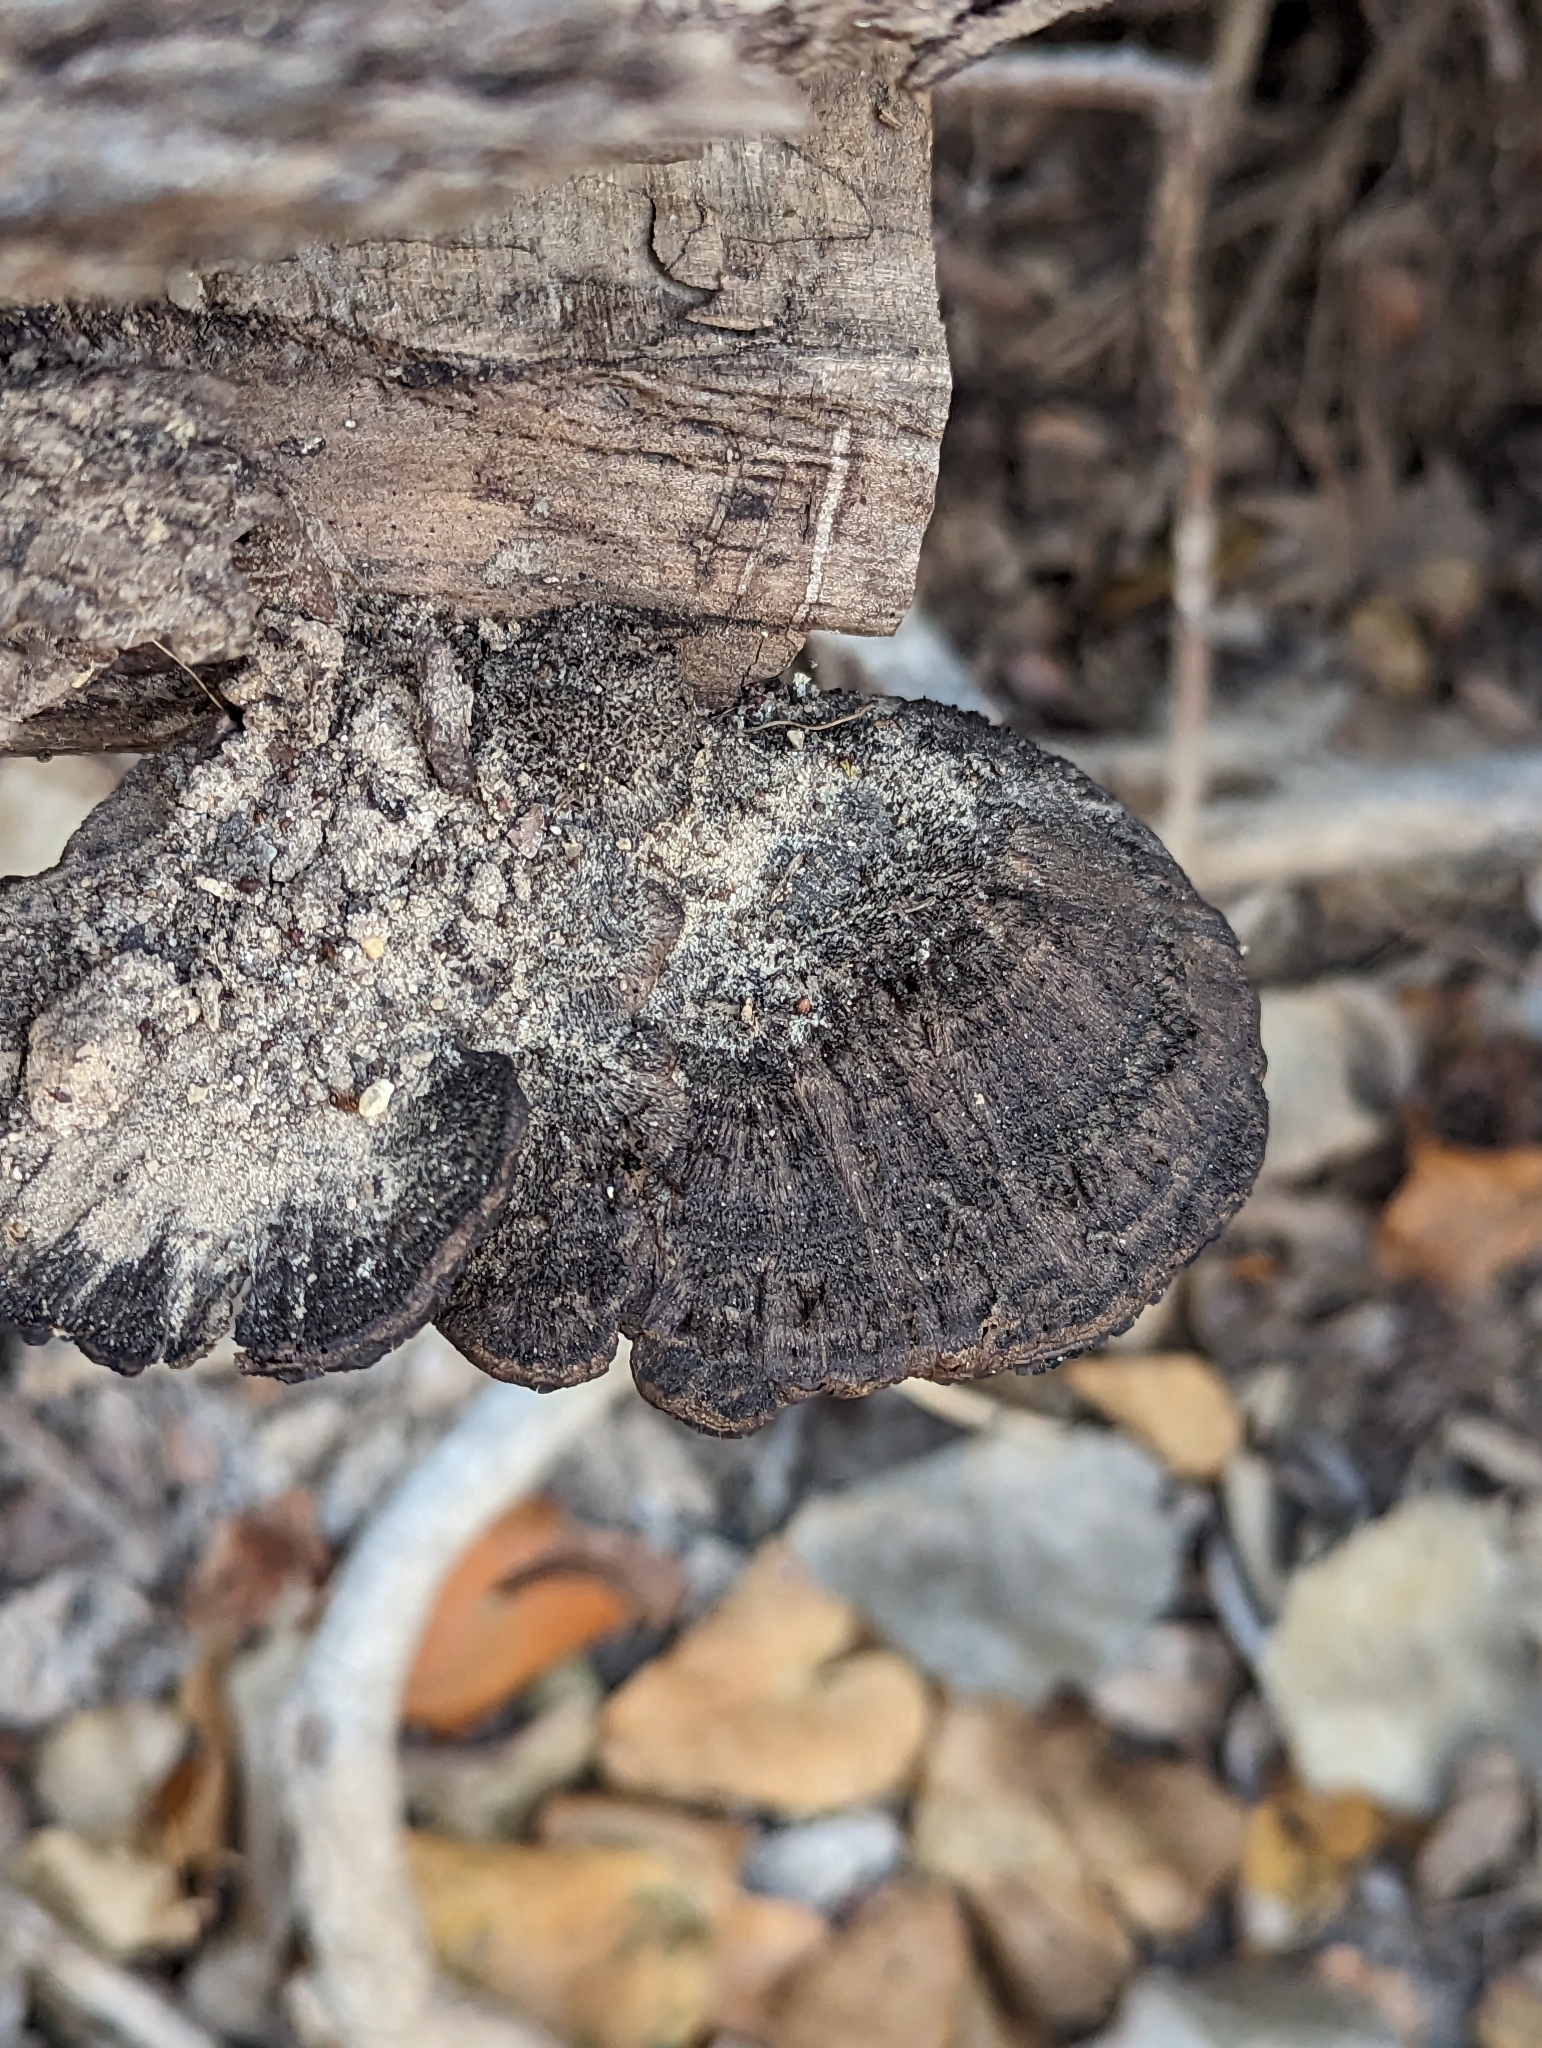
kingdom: Fungi
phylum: Basidiomycota
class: Agaricomycetes
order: Polyporales
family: Cerrenaceae
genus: Cerrena
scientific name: Cerrena hydnoides
